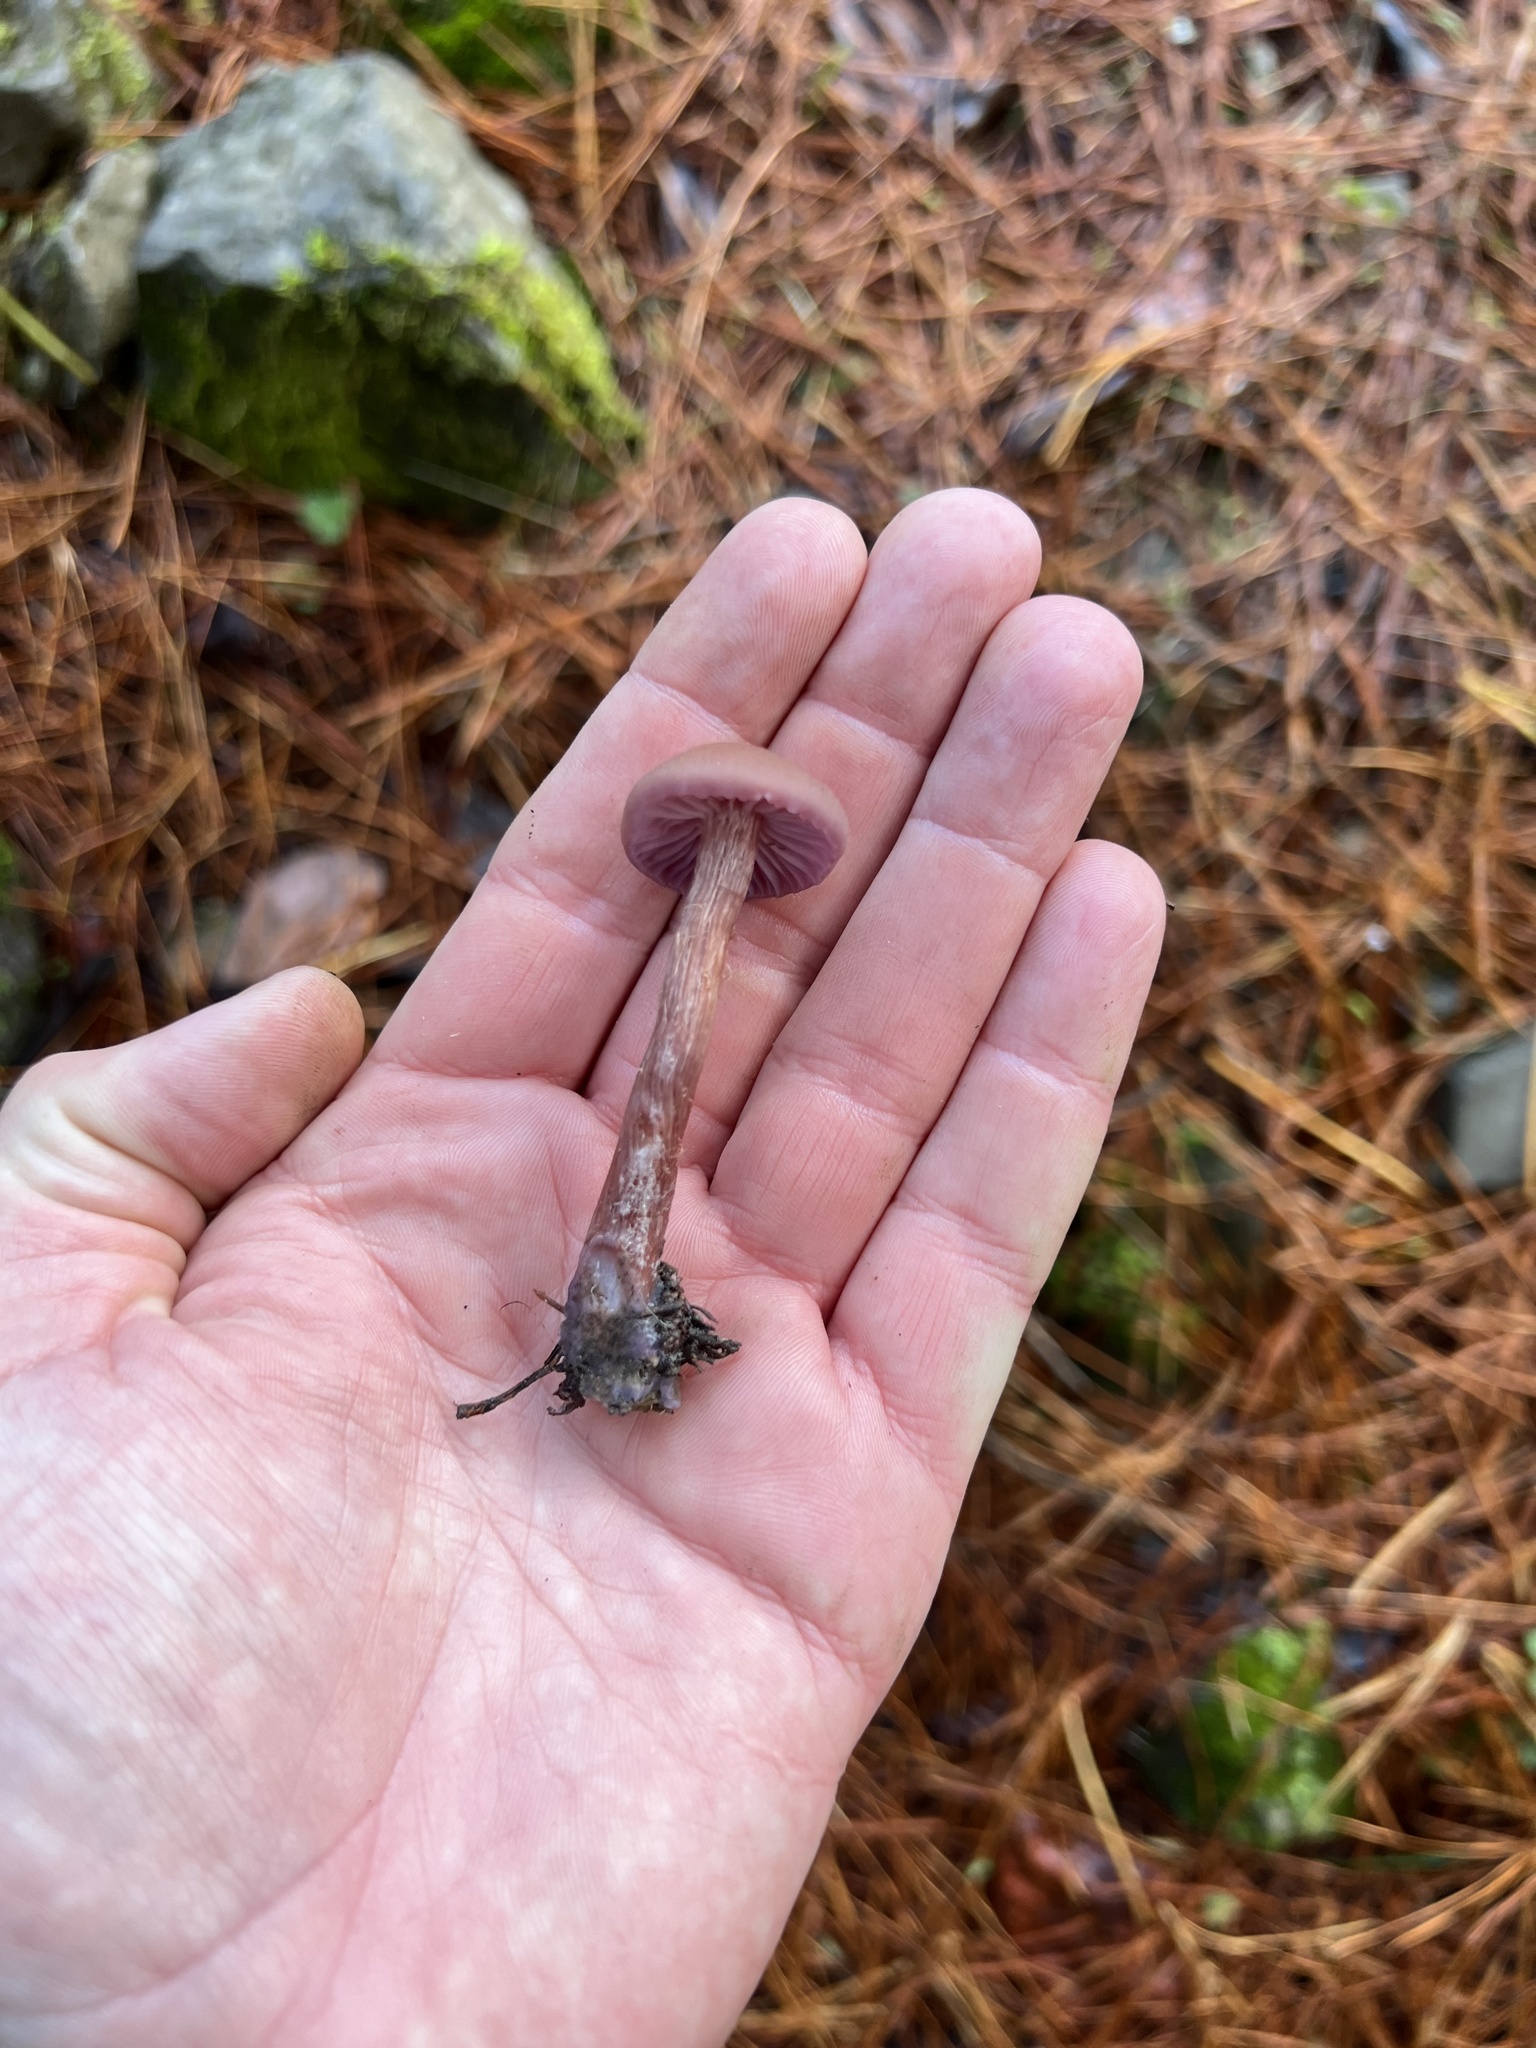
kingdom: Fungi
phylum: Basidiomycota
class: Agaricomycetes
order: Agaricales
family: Hydnangiaceae
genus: Laccaria
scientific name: Laccaria amethysteo-occidentalis
